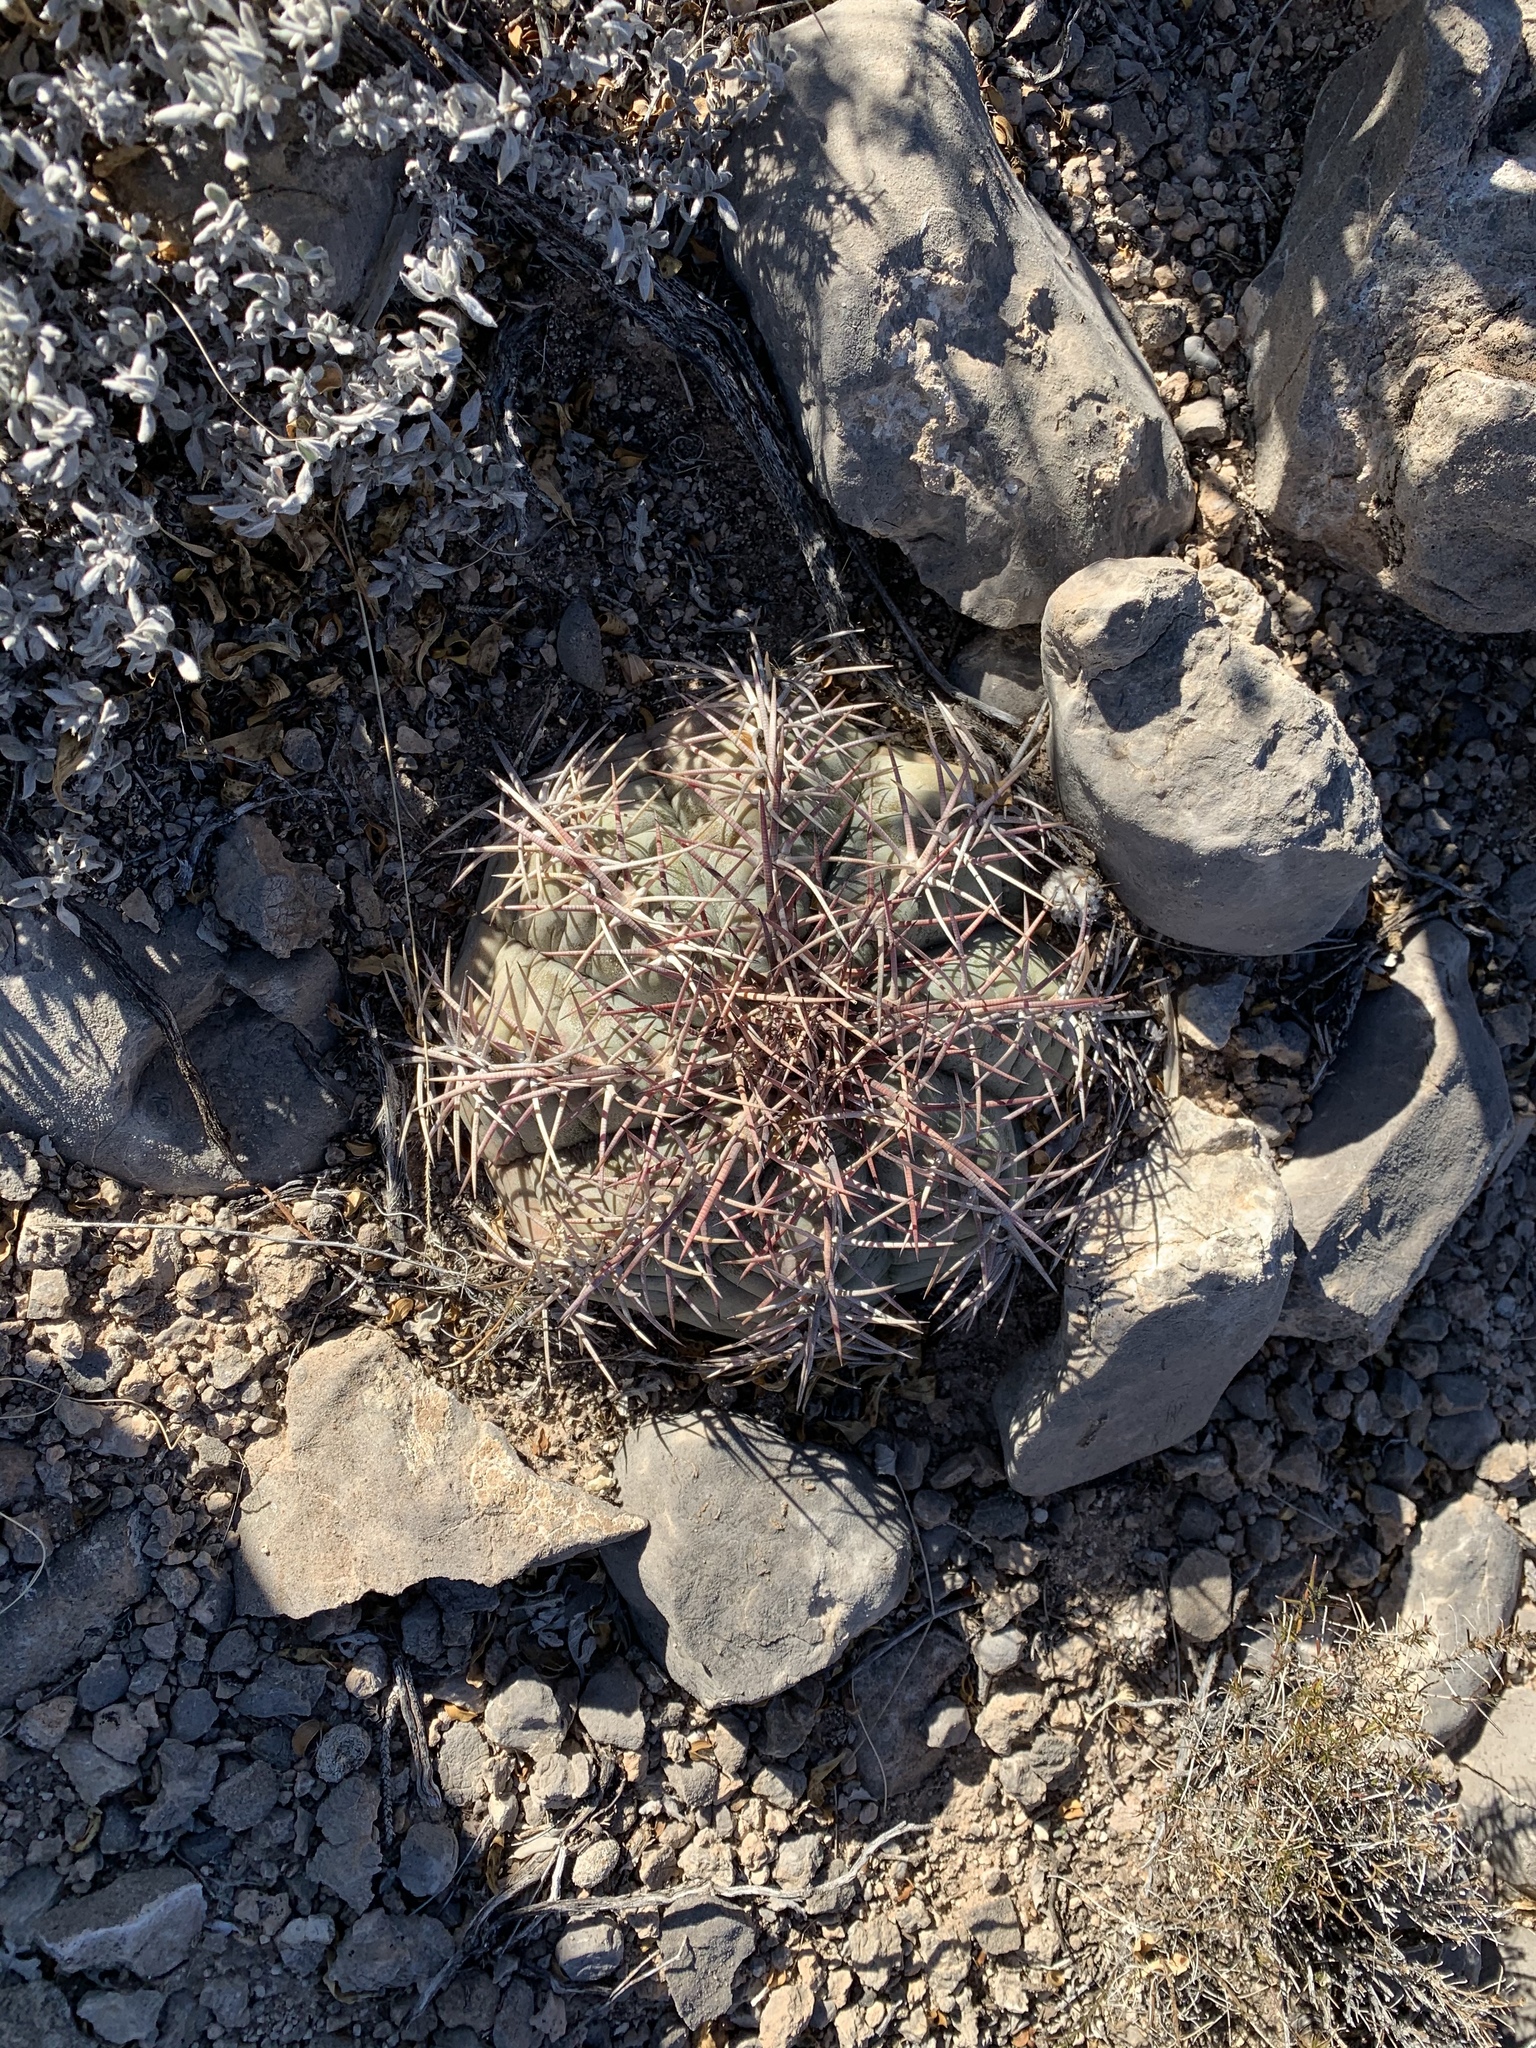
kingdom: Plantae
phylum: Tracheophyta
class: Magnoliopsida
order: Caryophyllales
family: Cactaceae
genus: Echinocactus
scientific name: Echinocactus horizonthalonius
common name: Devilshead
